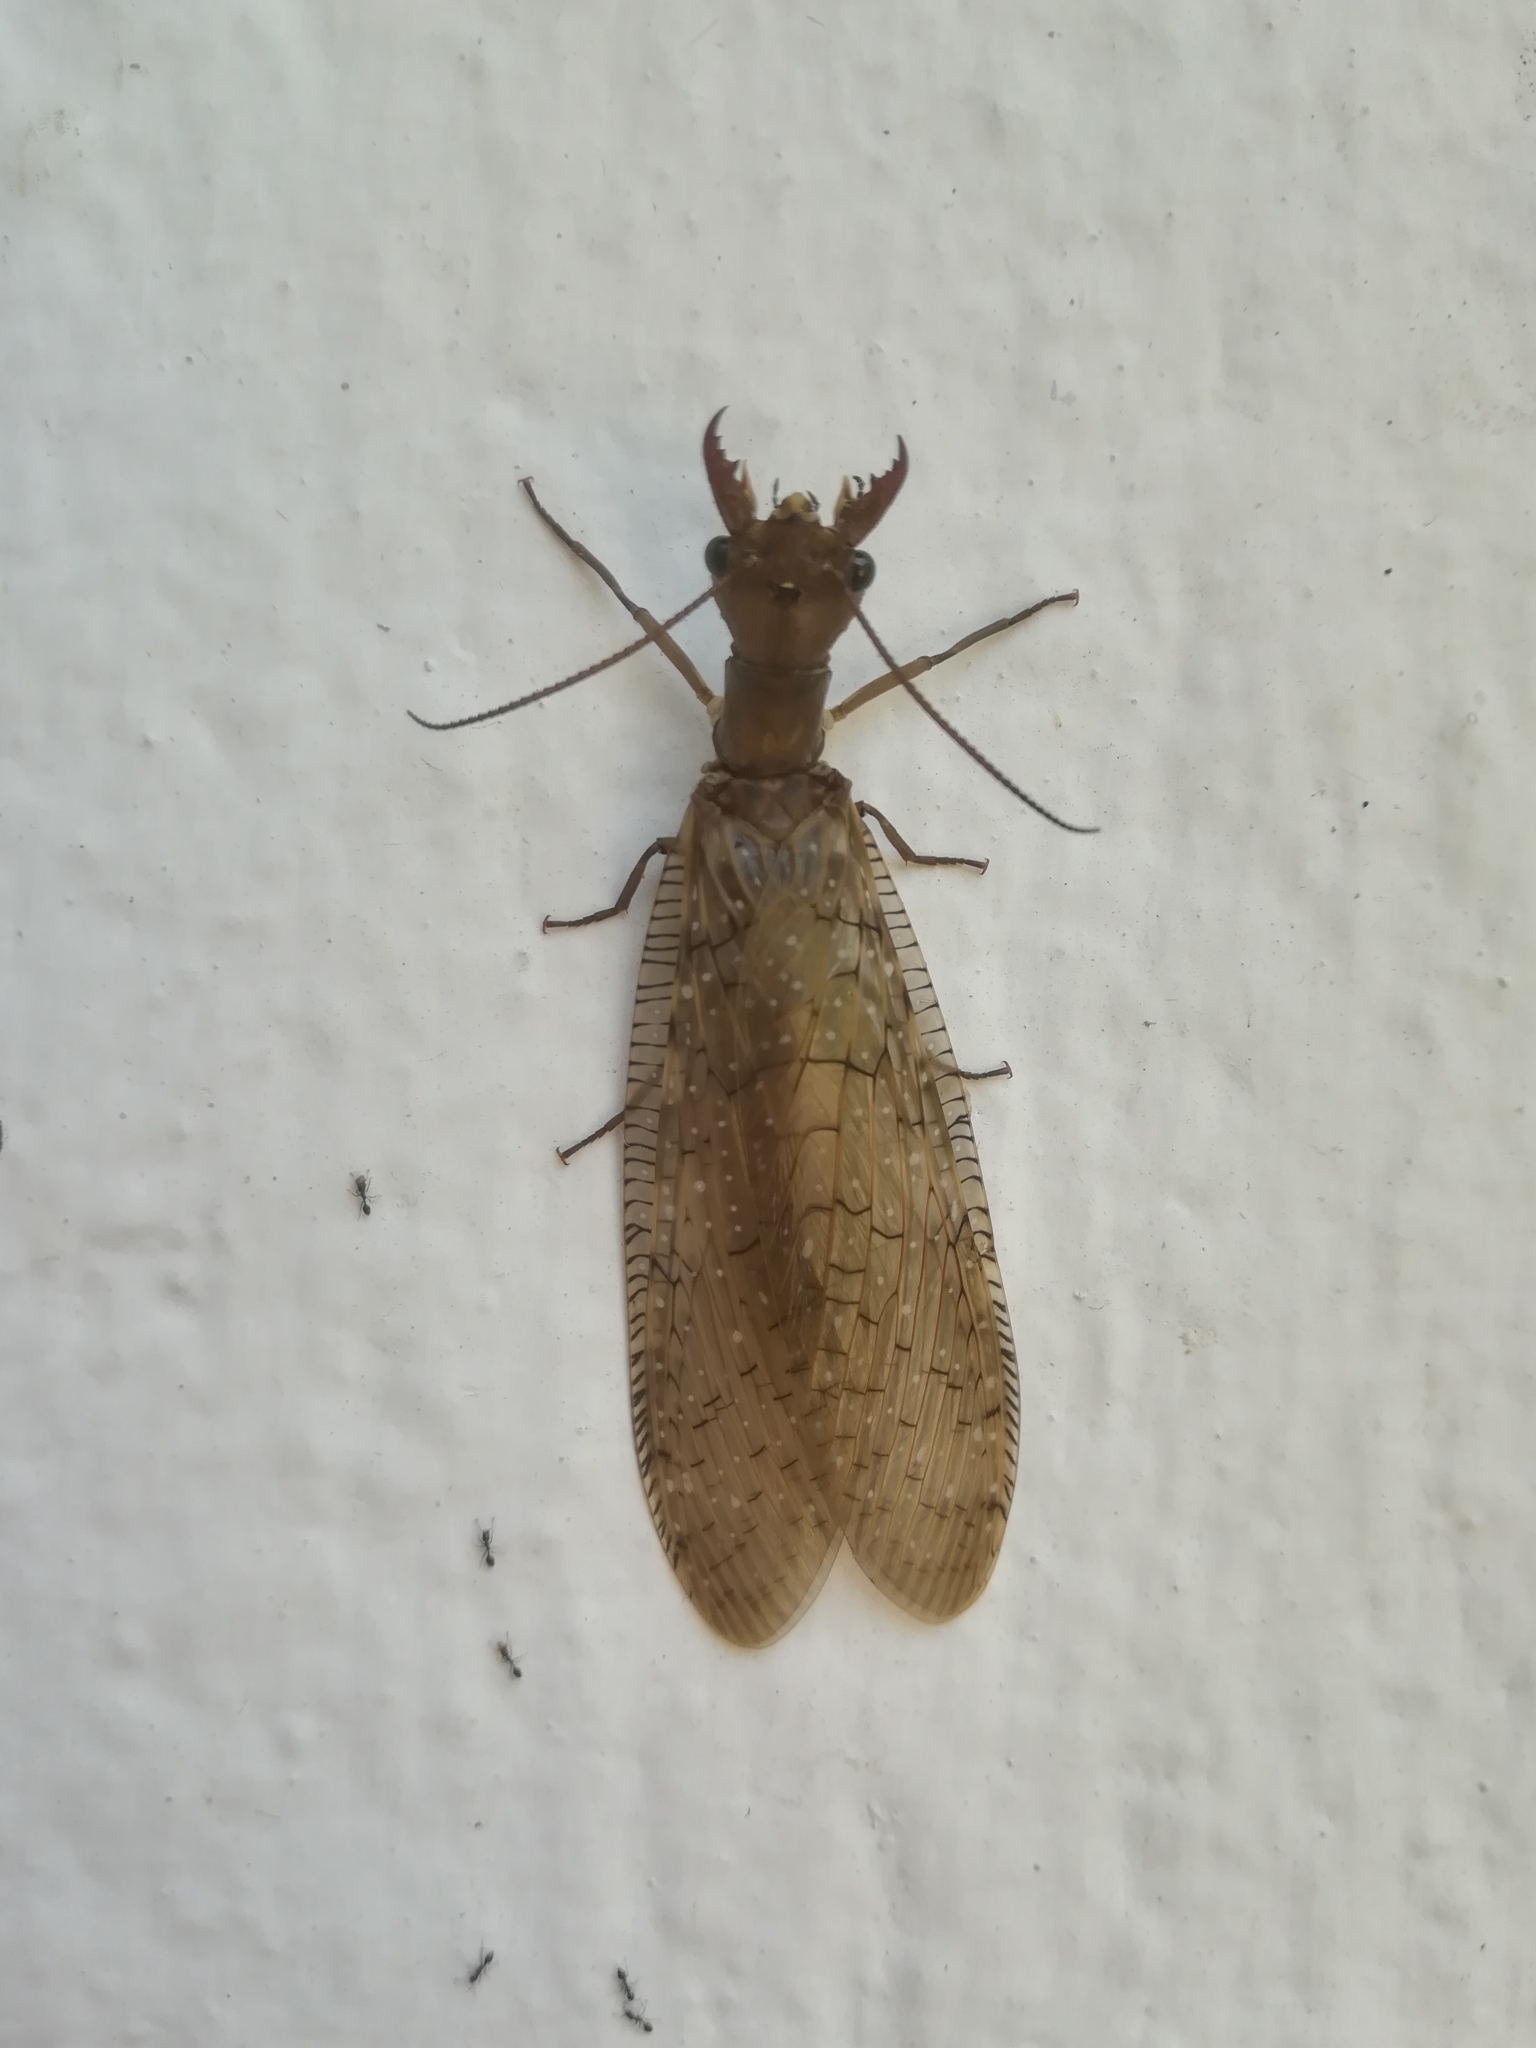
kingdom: Animalia
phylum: Arthropoda
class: Insecta
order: Megaloptera
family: Corydalidae
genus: Corydalus
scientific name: Corydalus luteus
